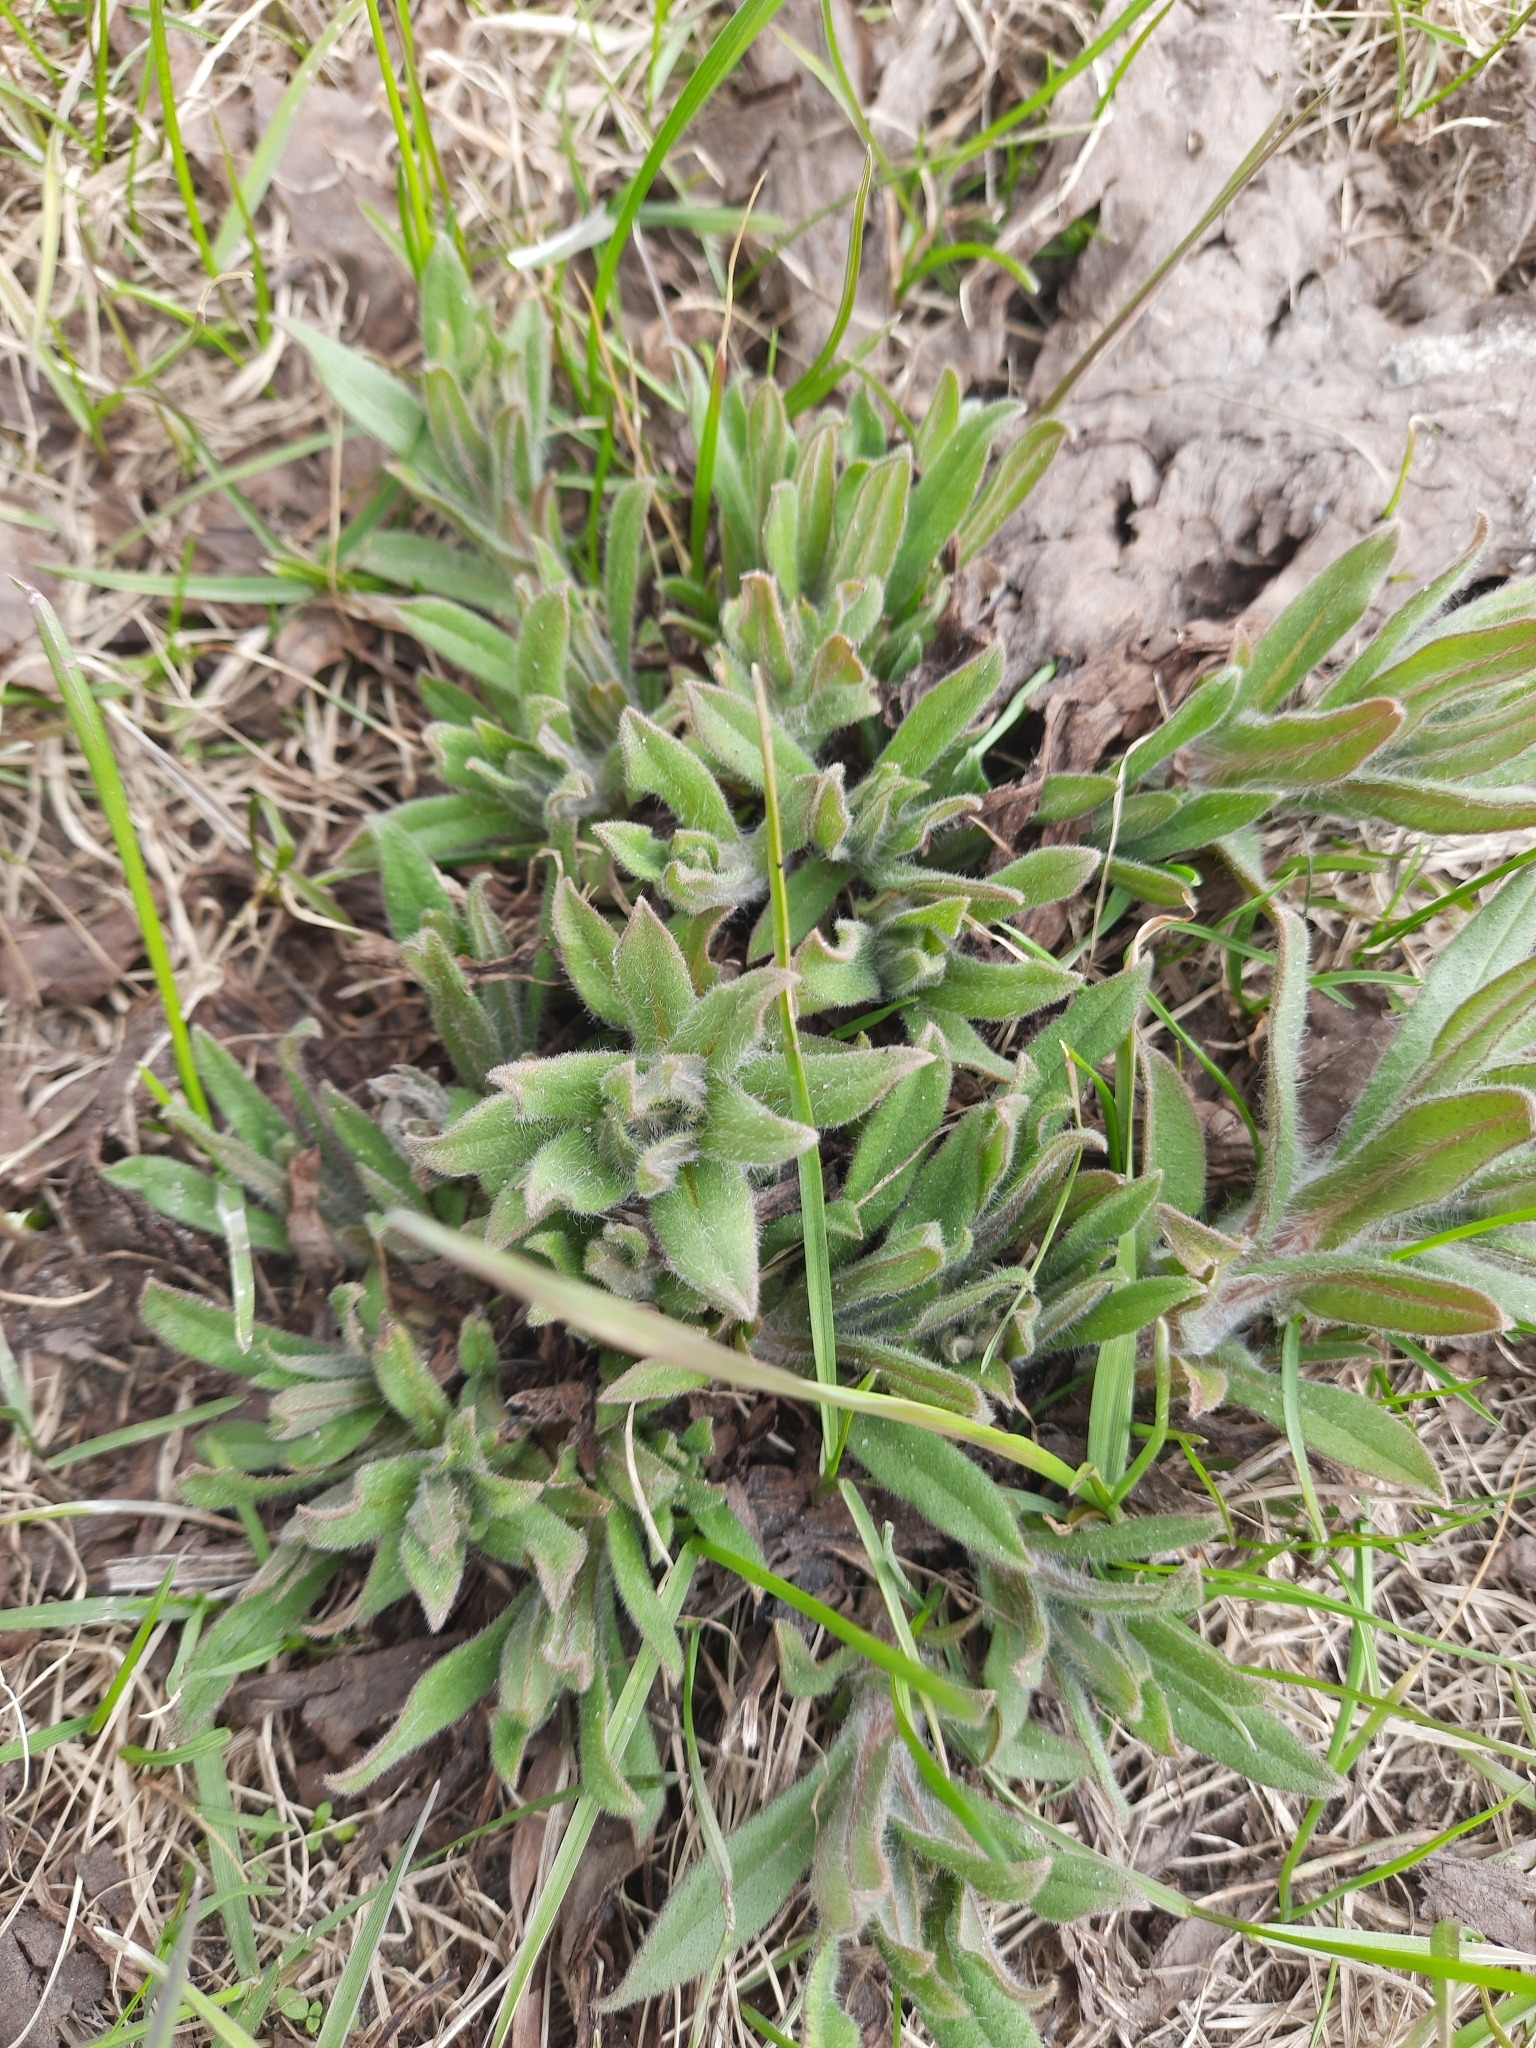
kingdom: Plantae
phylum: Tracheophyta
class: Magnoliopsida
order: Boraginales
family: Boraginaceae
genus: Nonea
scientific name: Nonea pulla
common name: Brown nonea
